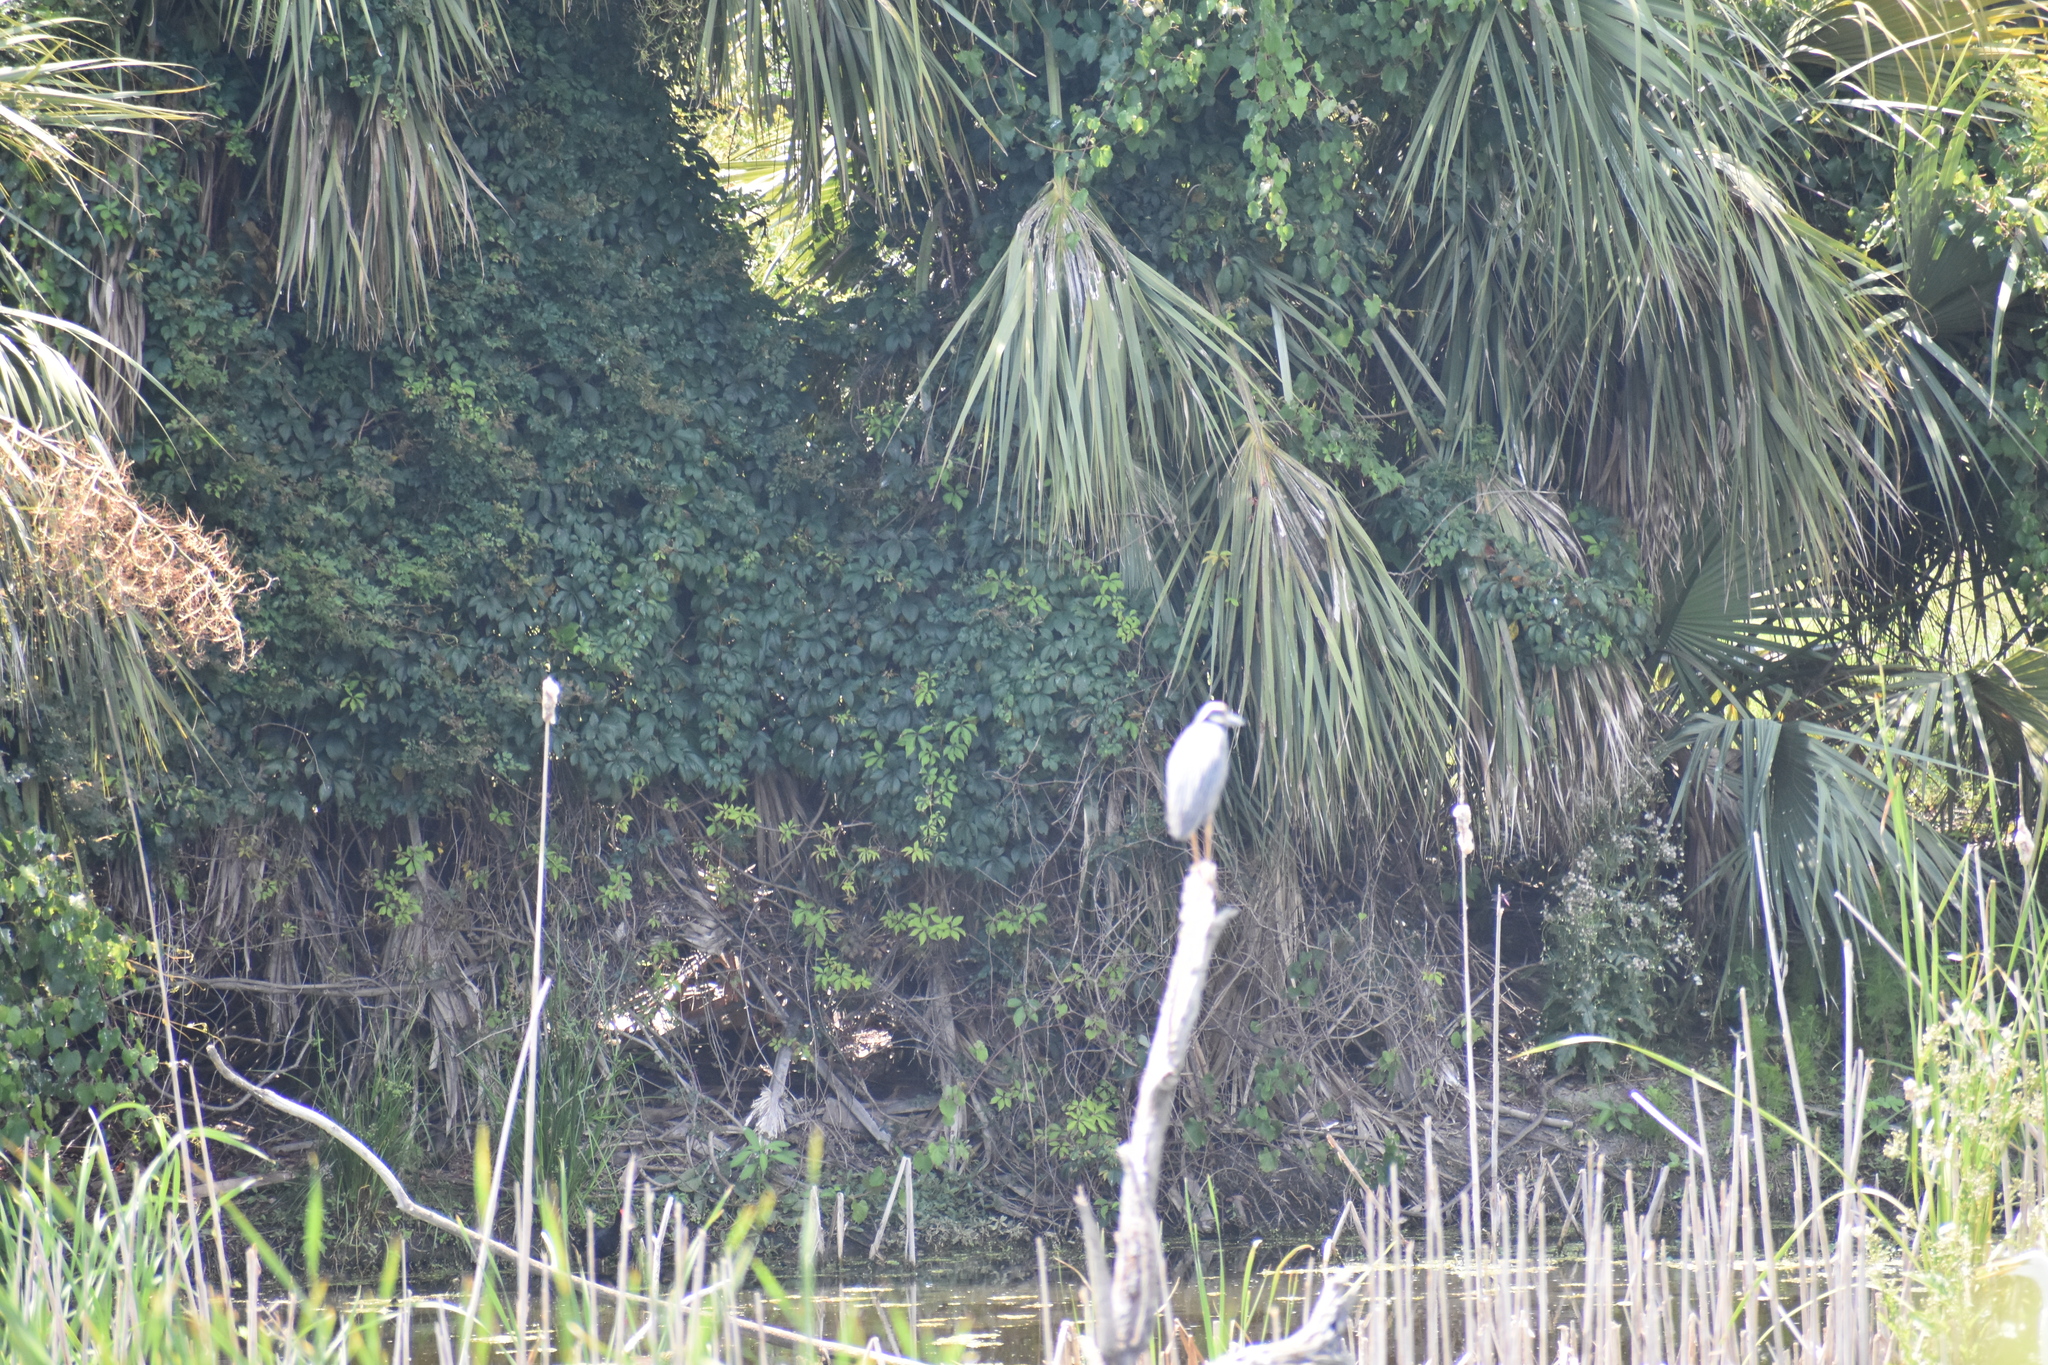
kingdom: Animalia
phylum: Chordata
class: Aves
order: Pelecaniformes
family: Ardeidae
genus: Nyctanassa
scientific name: Nyctanassa violacea
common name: Yellow-crowned night heron
